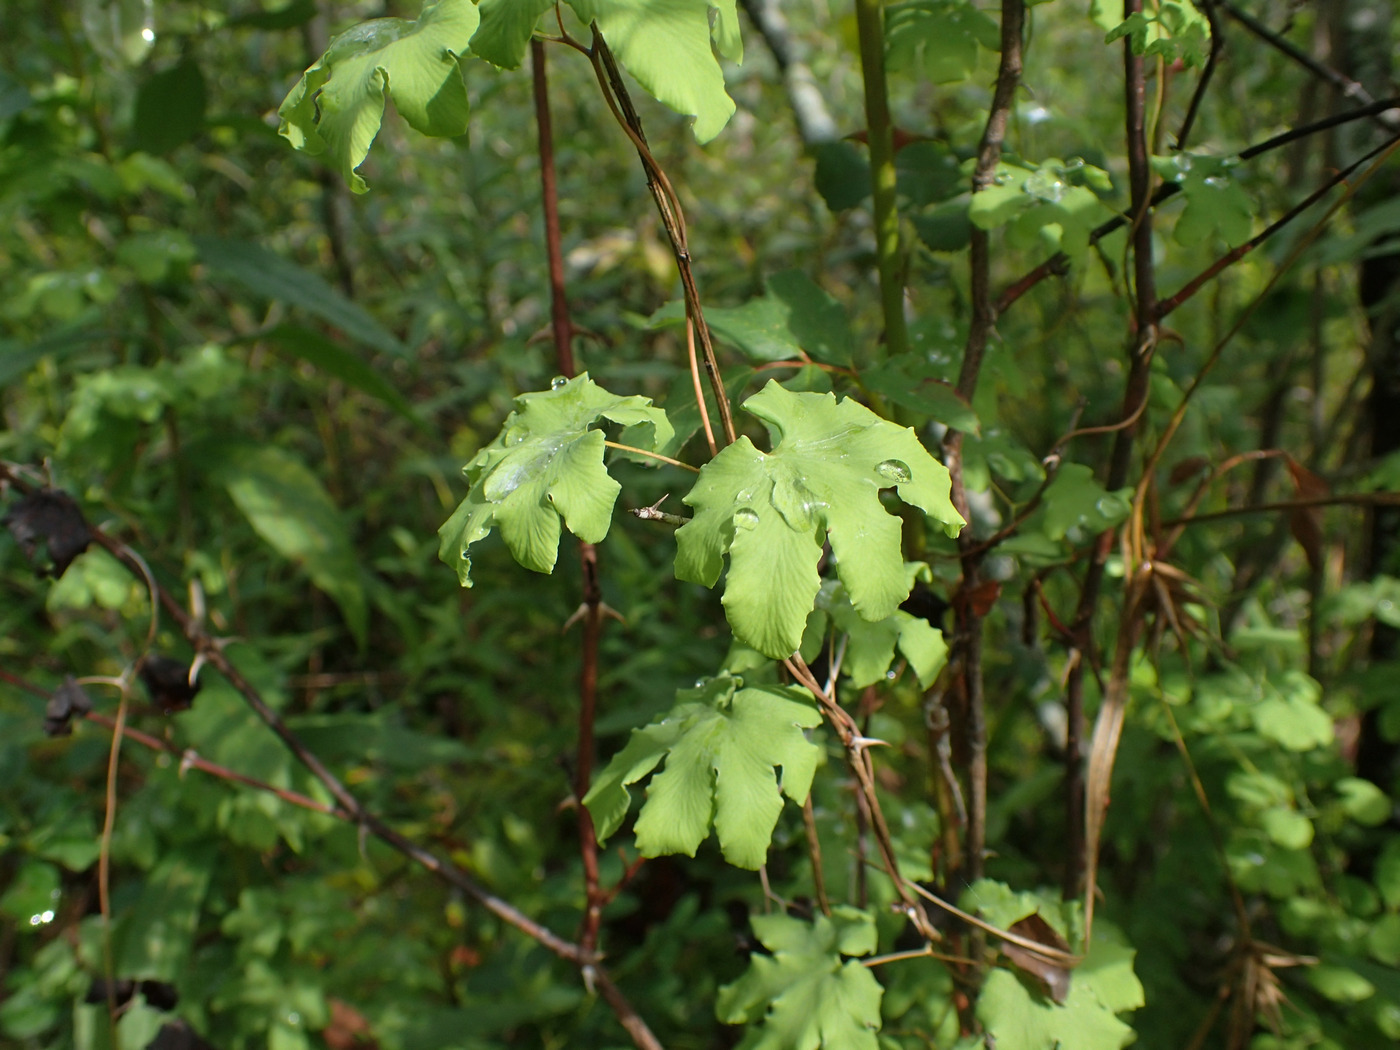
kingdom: Plantae
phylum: Tracheophyta
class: Polypodiopsida
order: Schizaeales
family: Lygodiaceae
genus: Lygodium
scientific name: Lygodium palmatum
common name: American climbing fern
